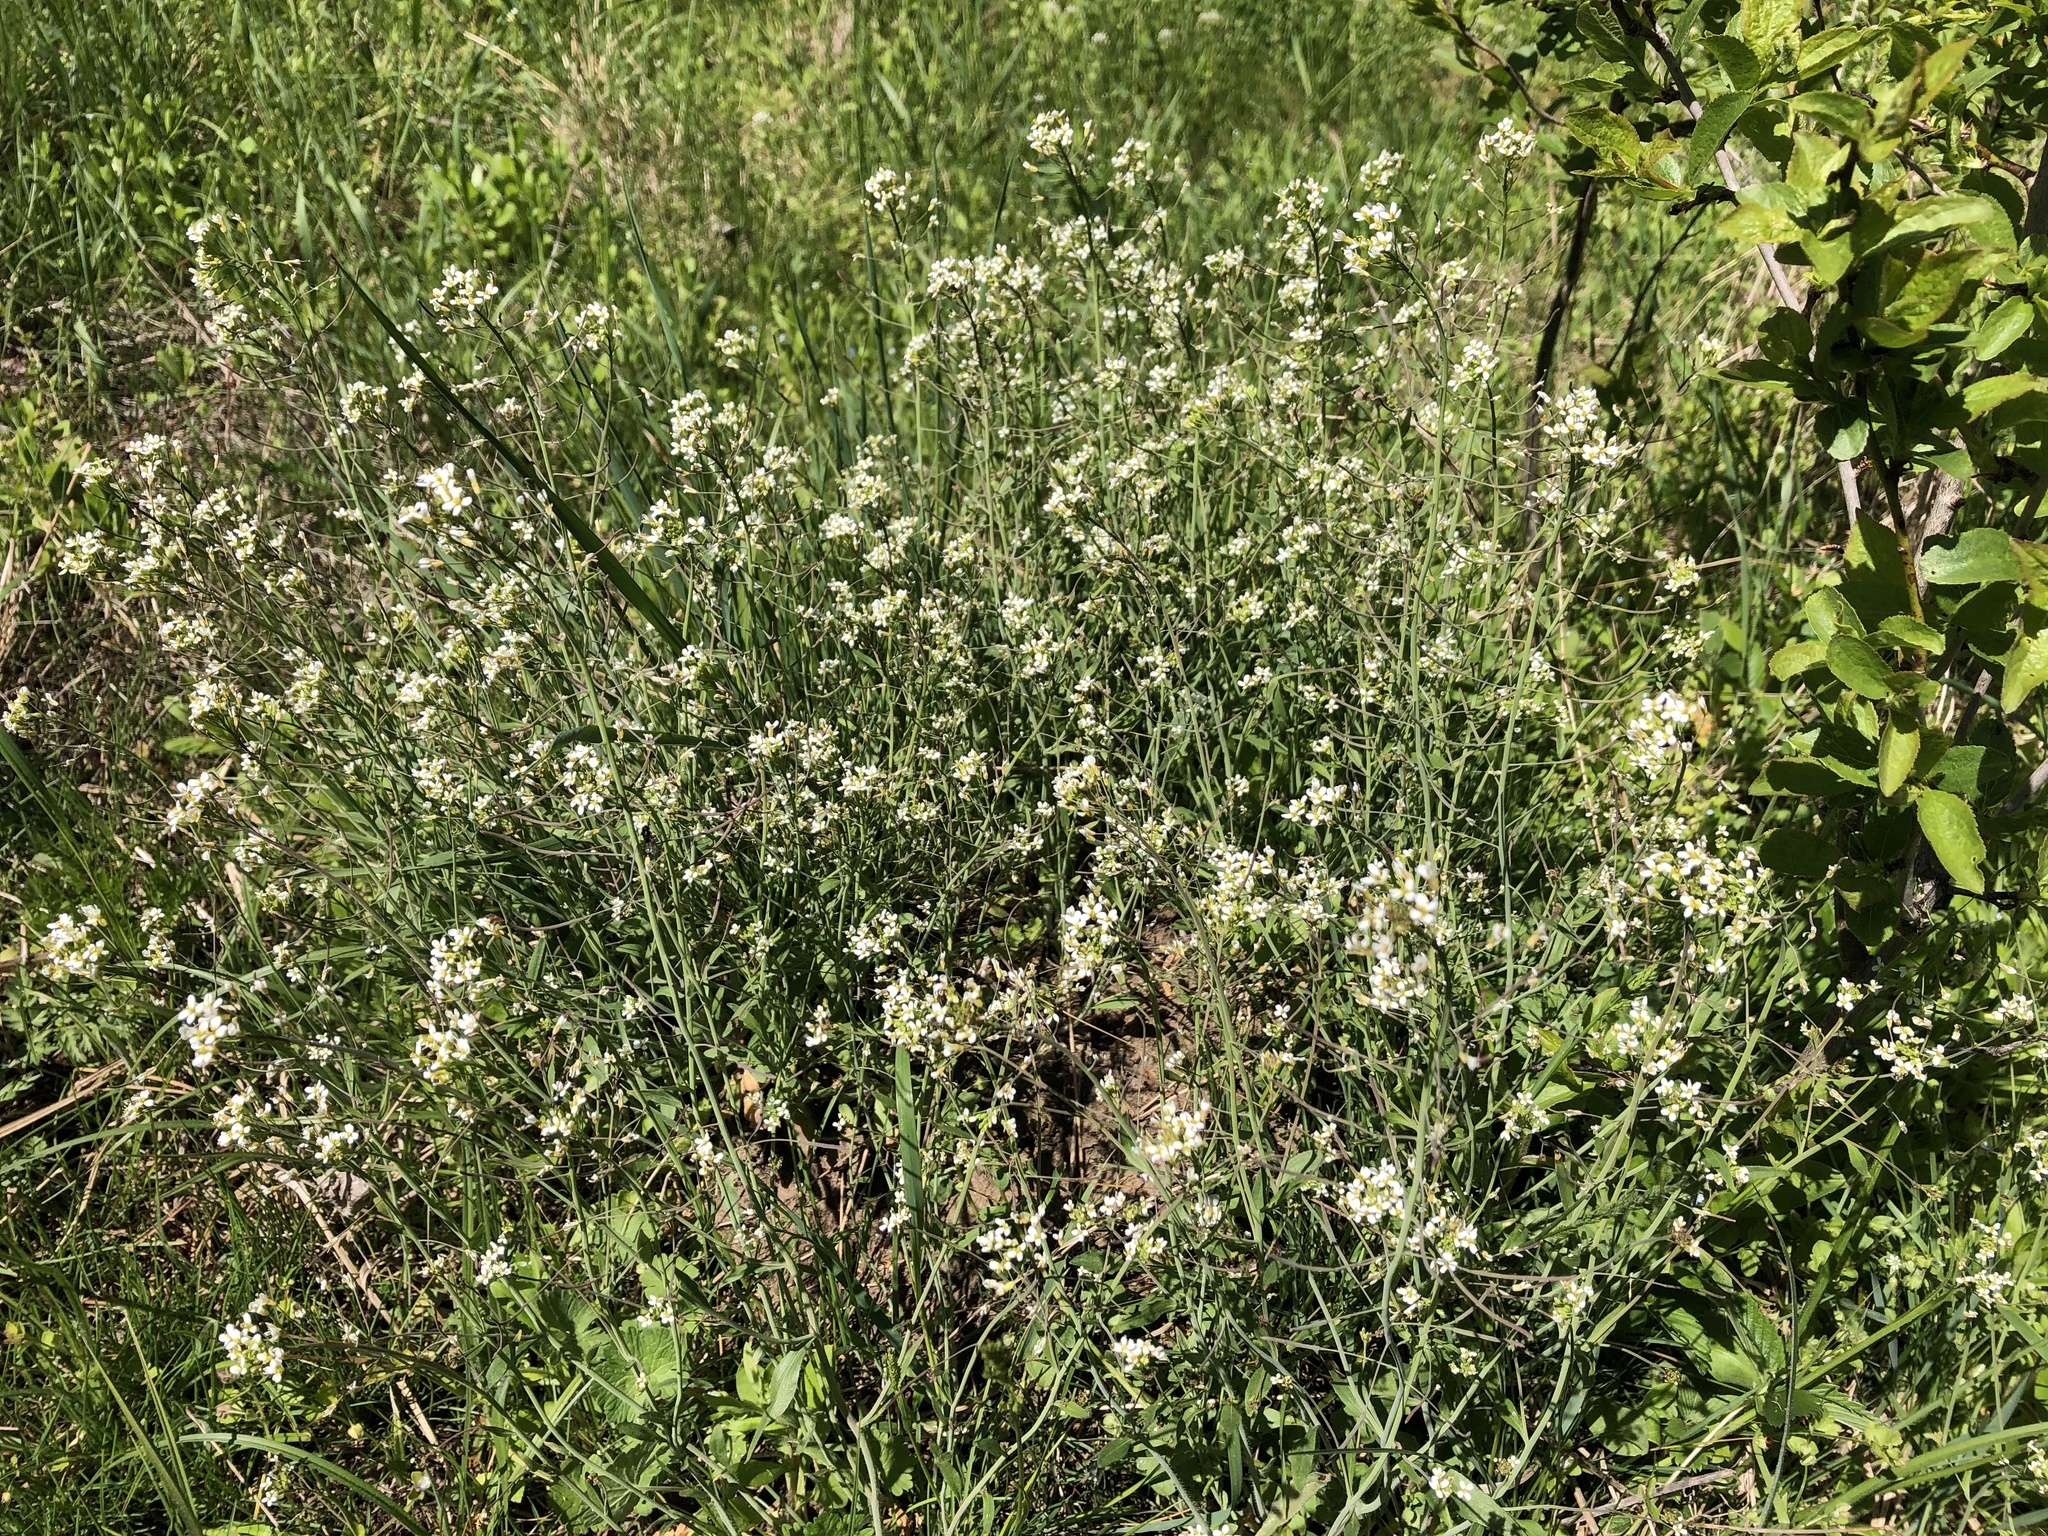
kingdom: Plantae
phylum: Tracheophyta
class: Magnoliopsida
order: Brassicales
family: Brassicaceae
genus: Arabidopsis
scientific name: Arabidopsis thaliana
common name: Thale cress
